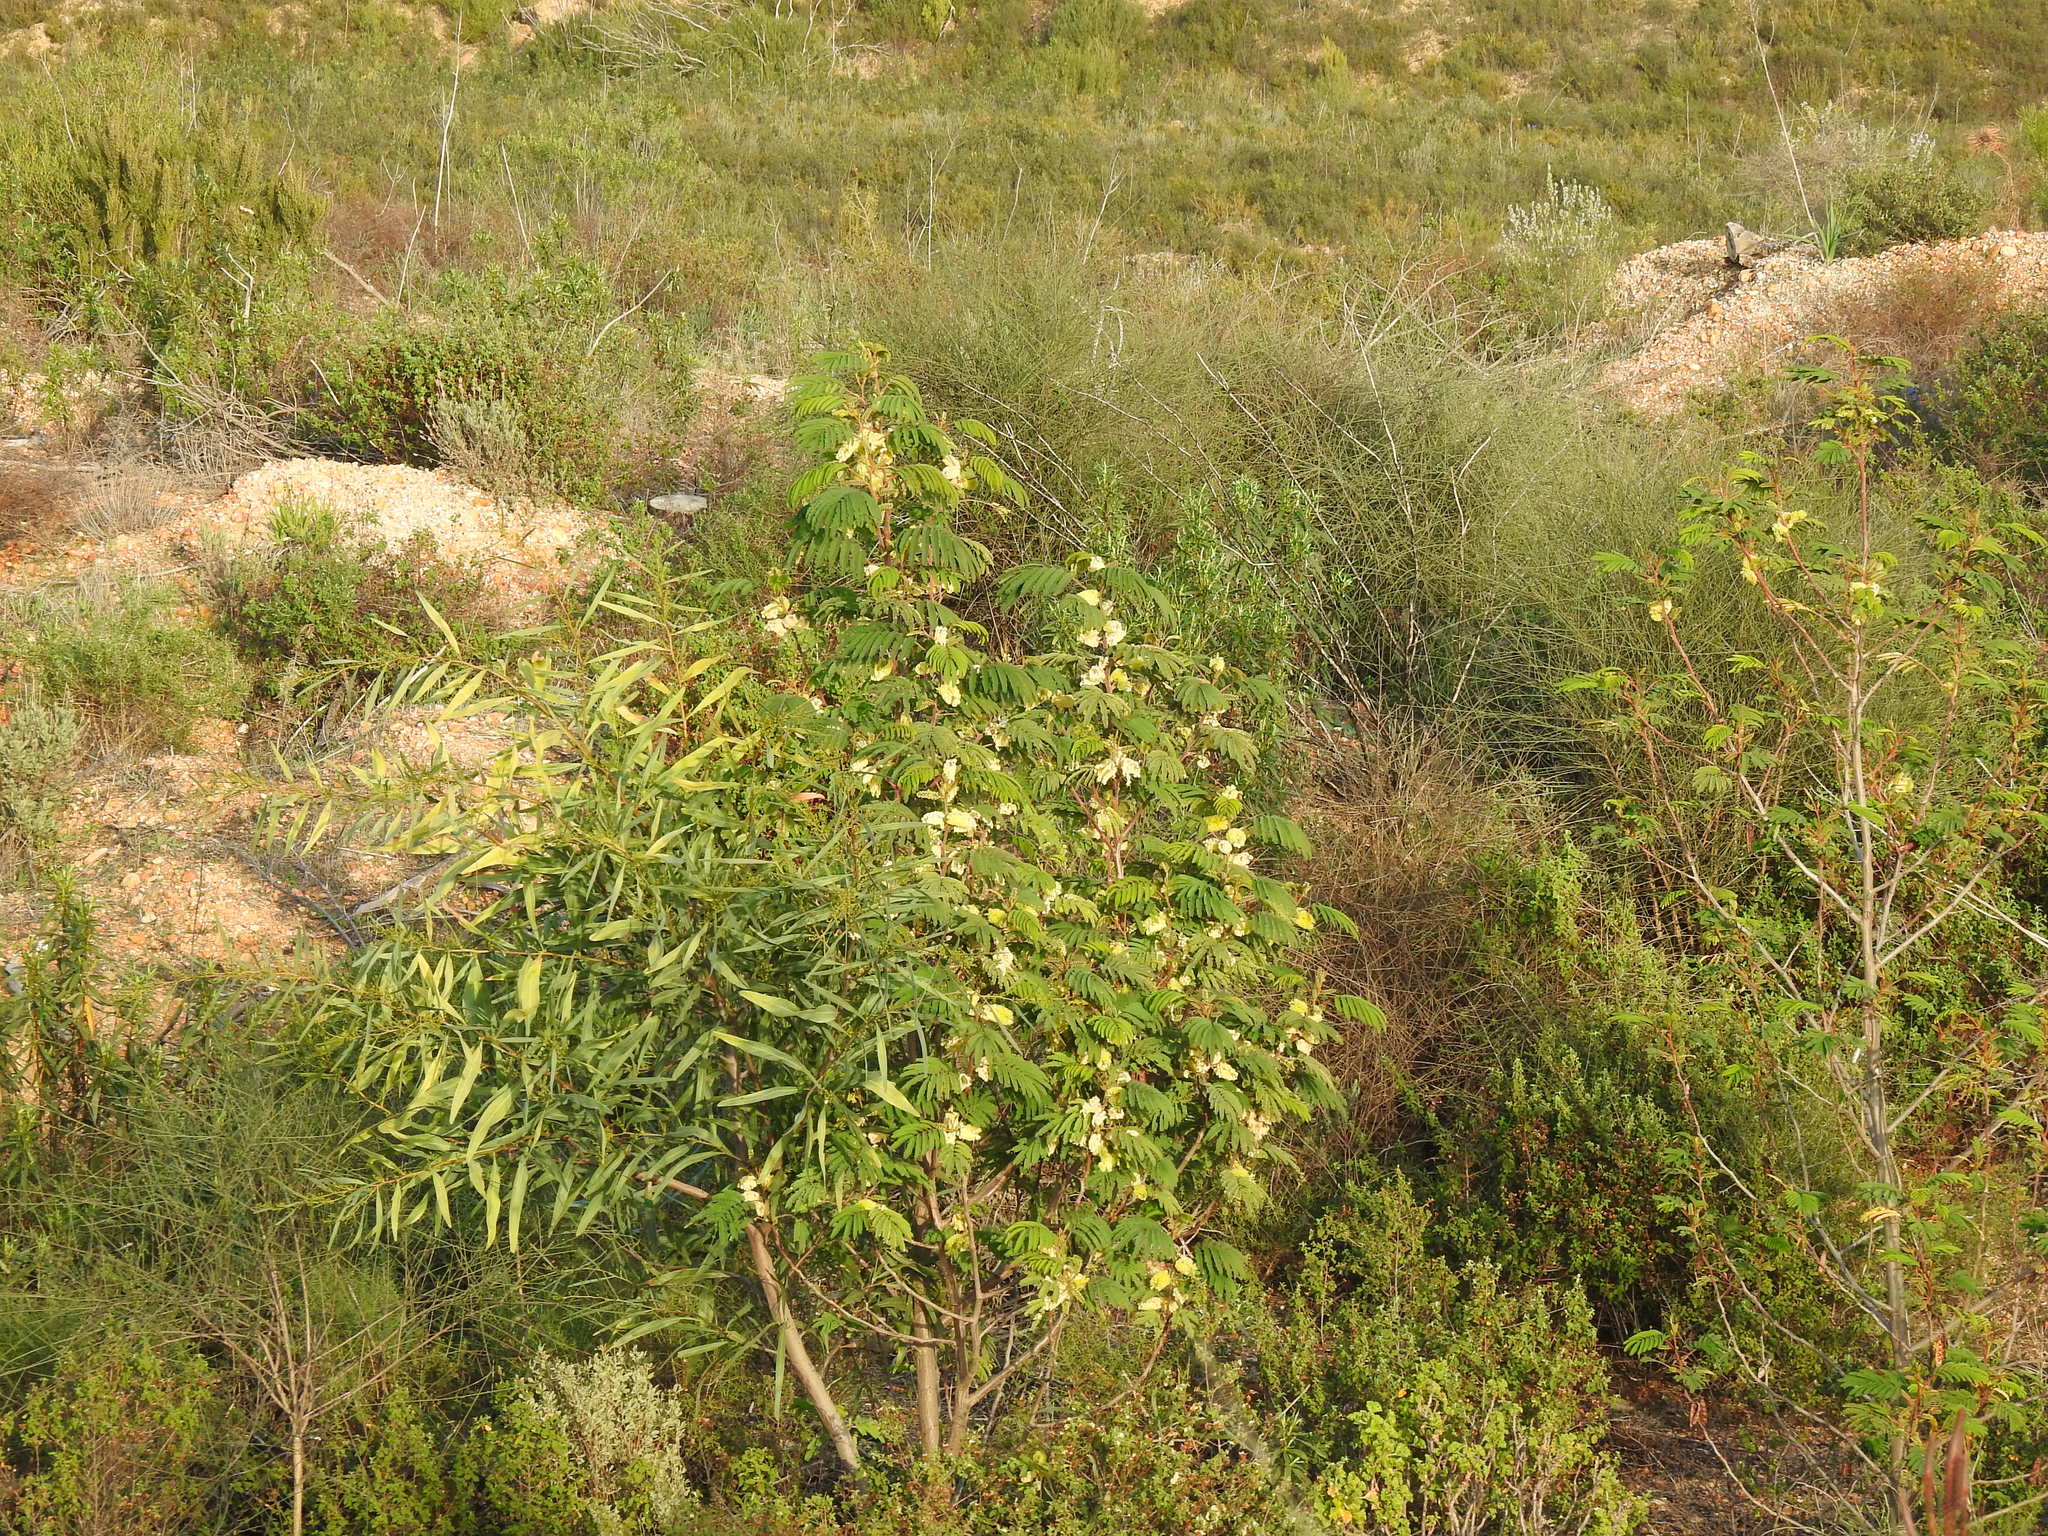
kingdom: Plantae
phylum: Tracheophyta
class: Magnoliopsida
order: Fabales
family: Fabaceae
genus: Paraserianthes
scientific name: Paraserianthes lophantha
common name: Plume albizia
